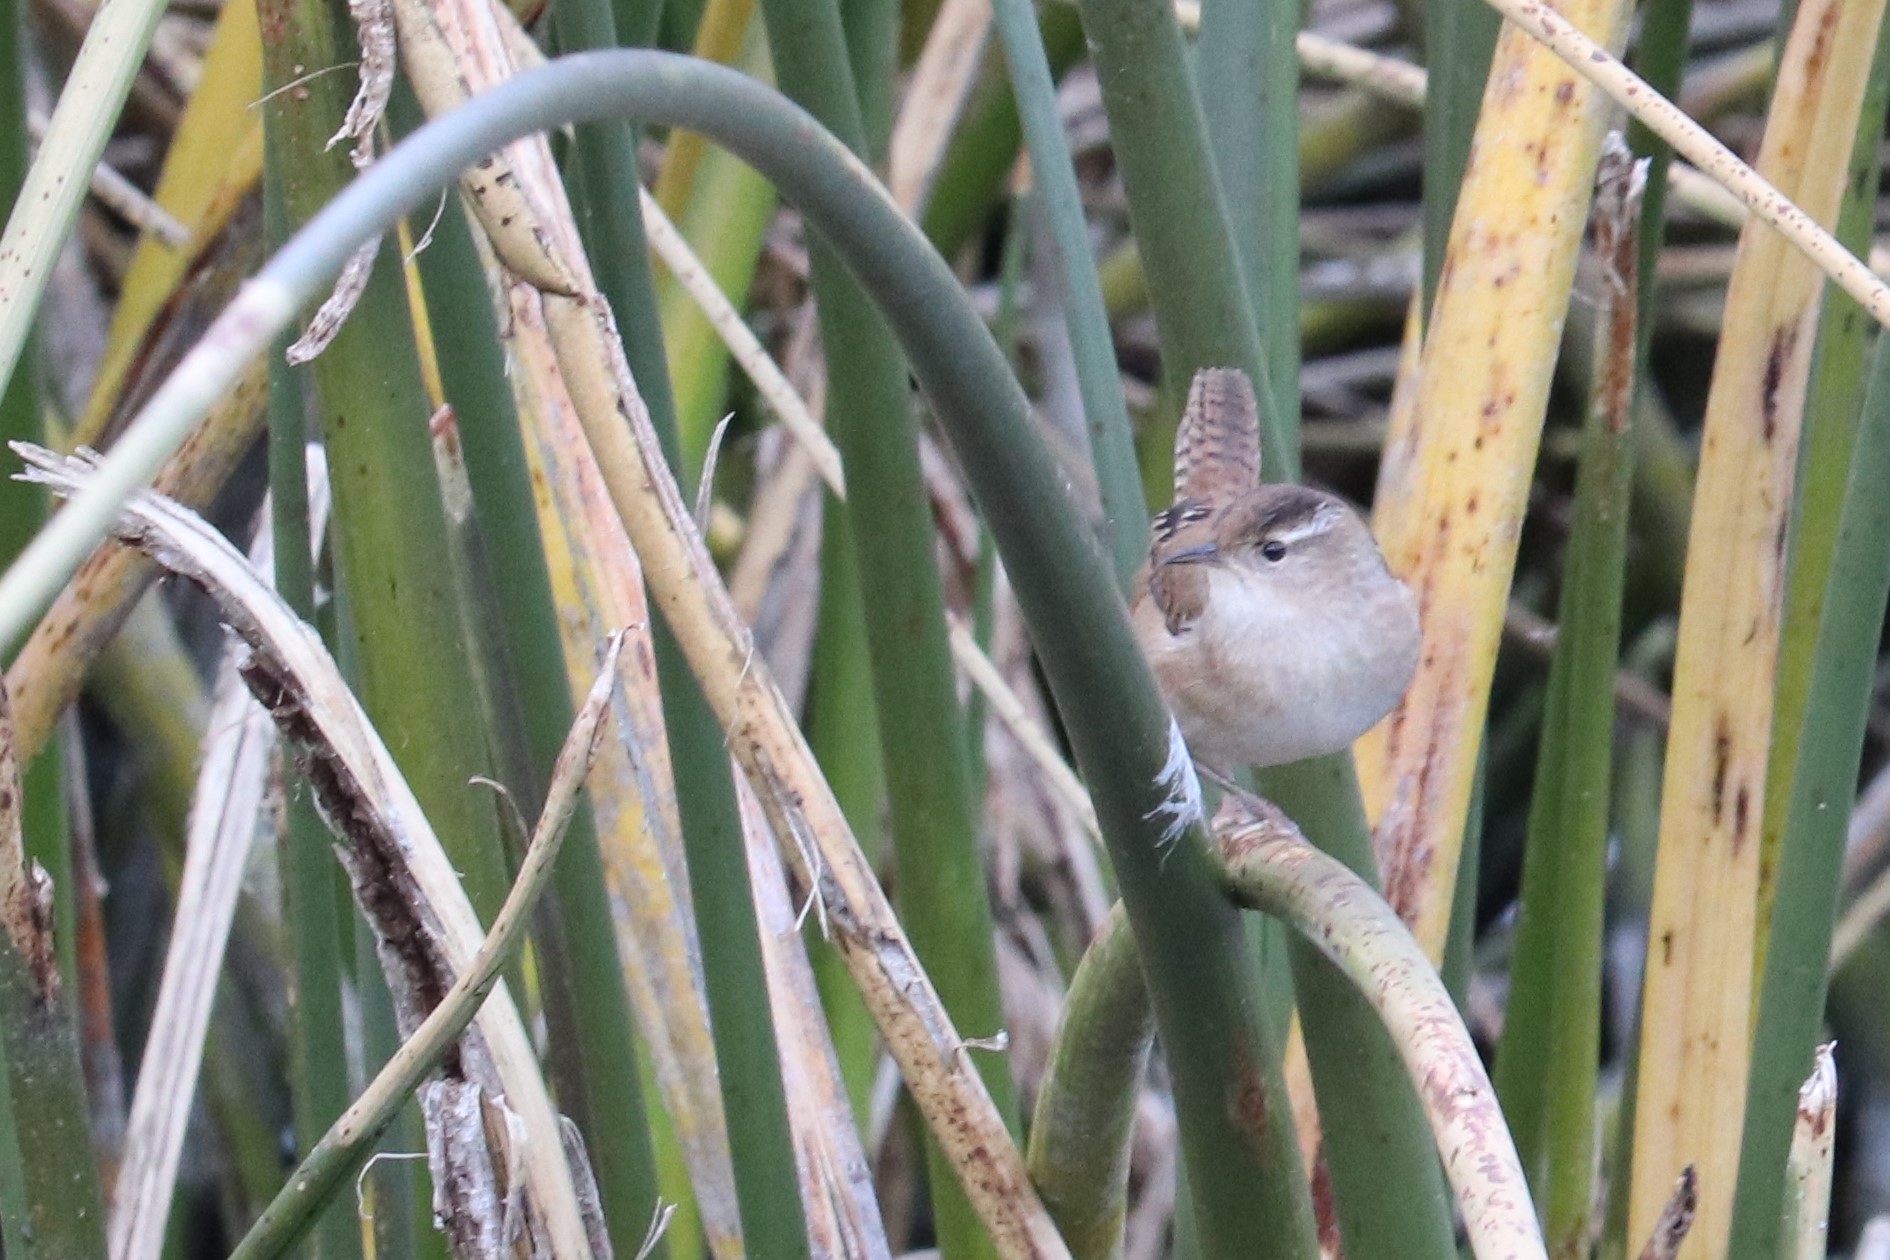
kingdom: Animalia
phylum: Chordata
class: Aves
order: Passeriformes
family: Troglodytidae
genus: Cistothorus
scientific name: Cistothorus palustris
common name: Marsh wren
